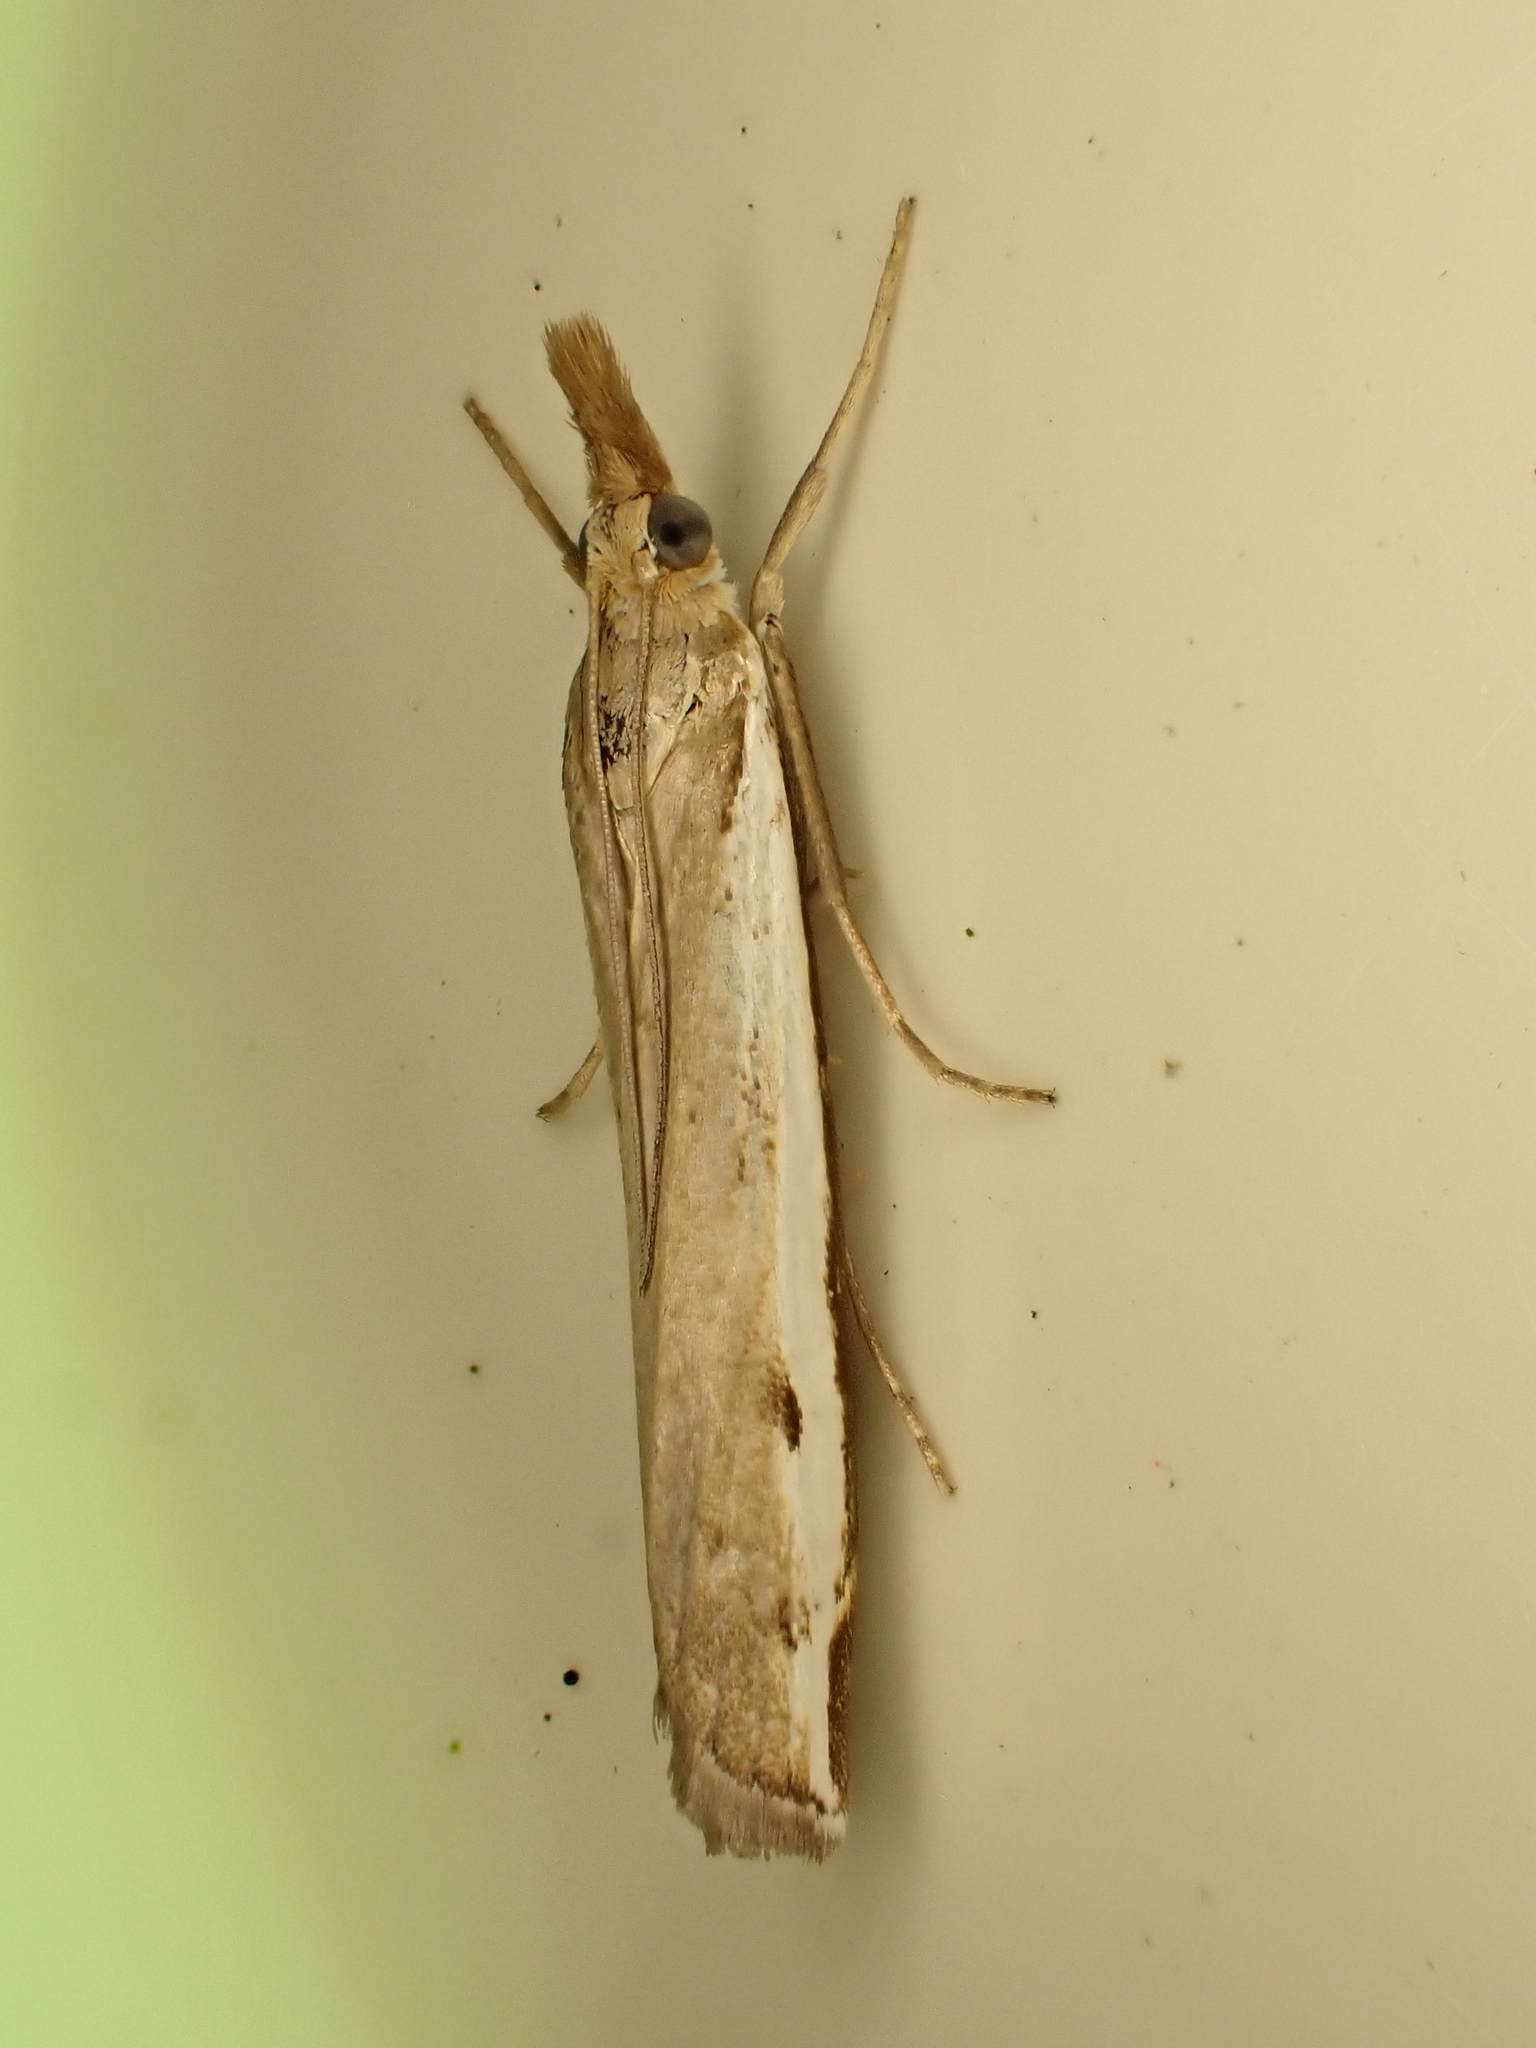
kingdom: Animalia
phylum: Arthropoda
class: Insecta
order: Lepidoptera
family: Crambidae
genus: Orocrambus
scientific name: Orocrambus flexuosellus
